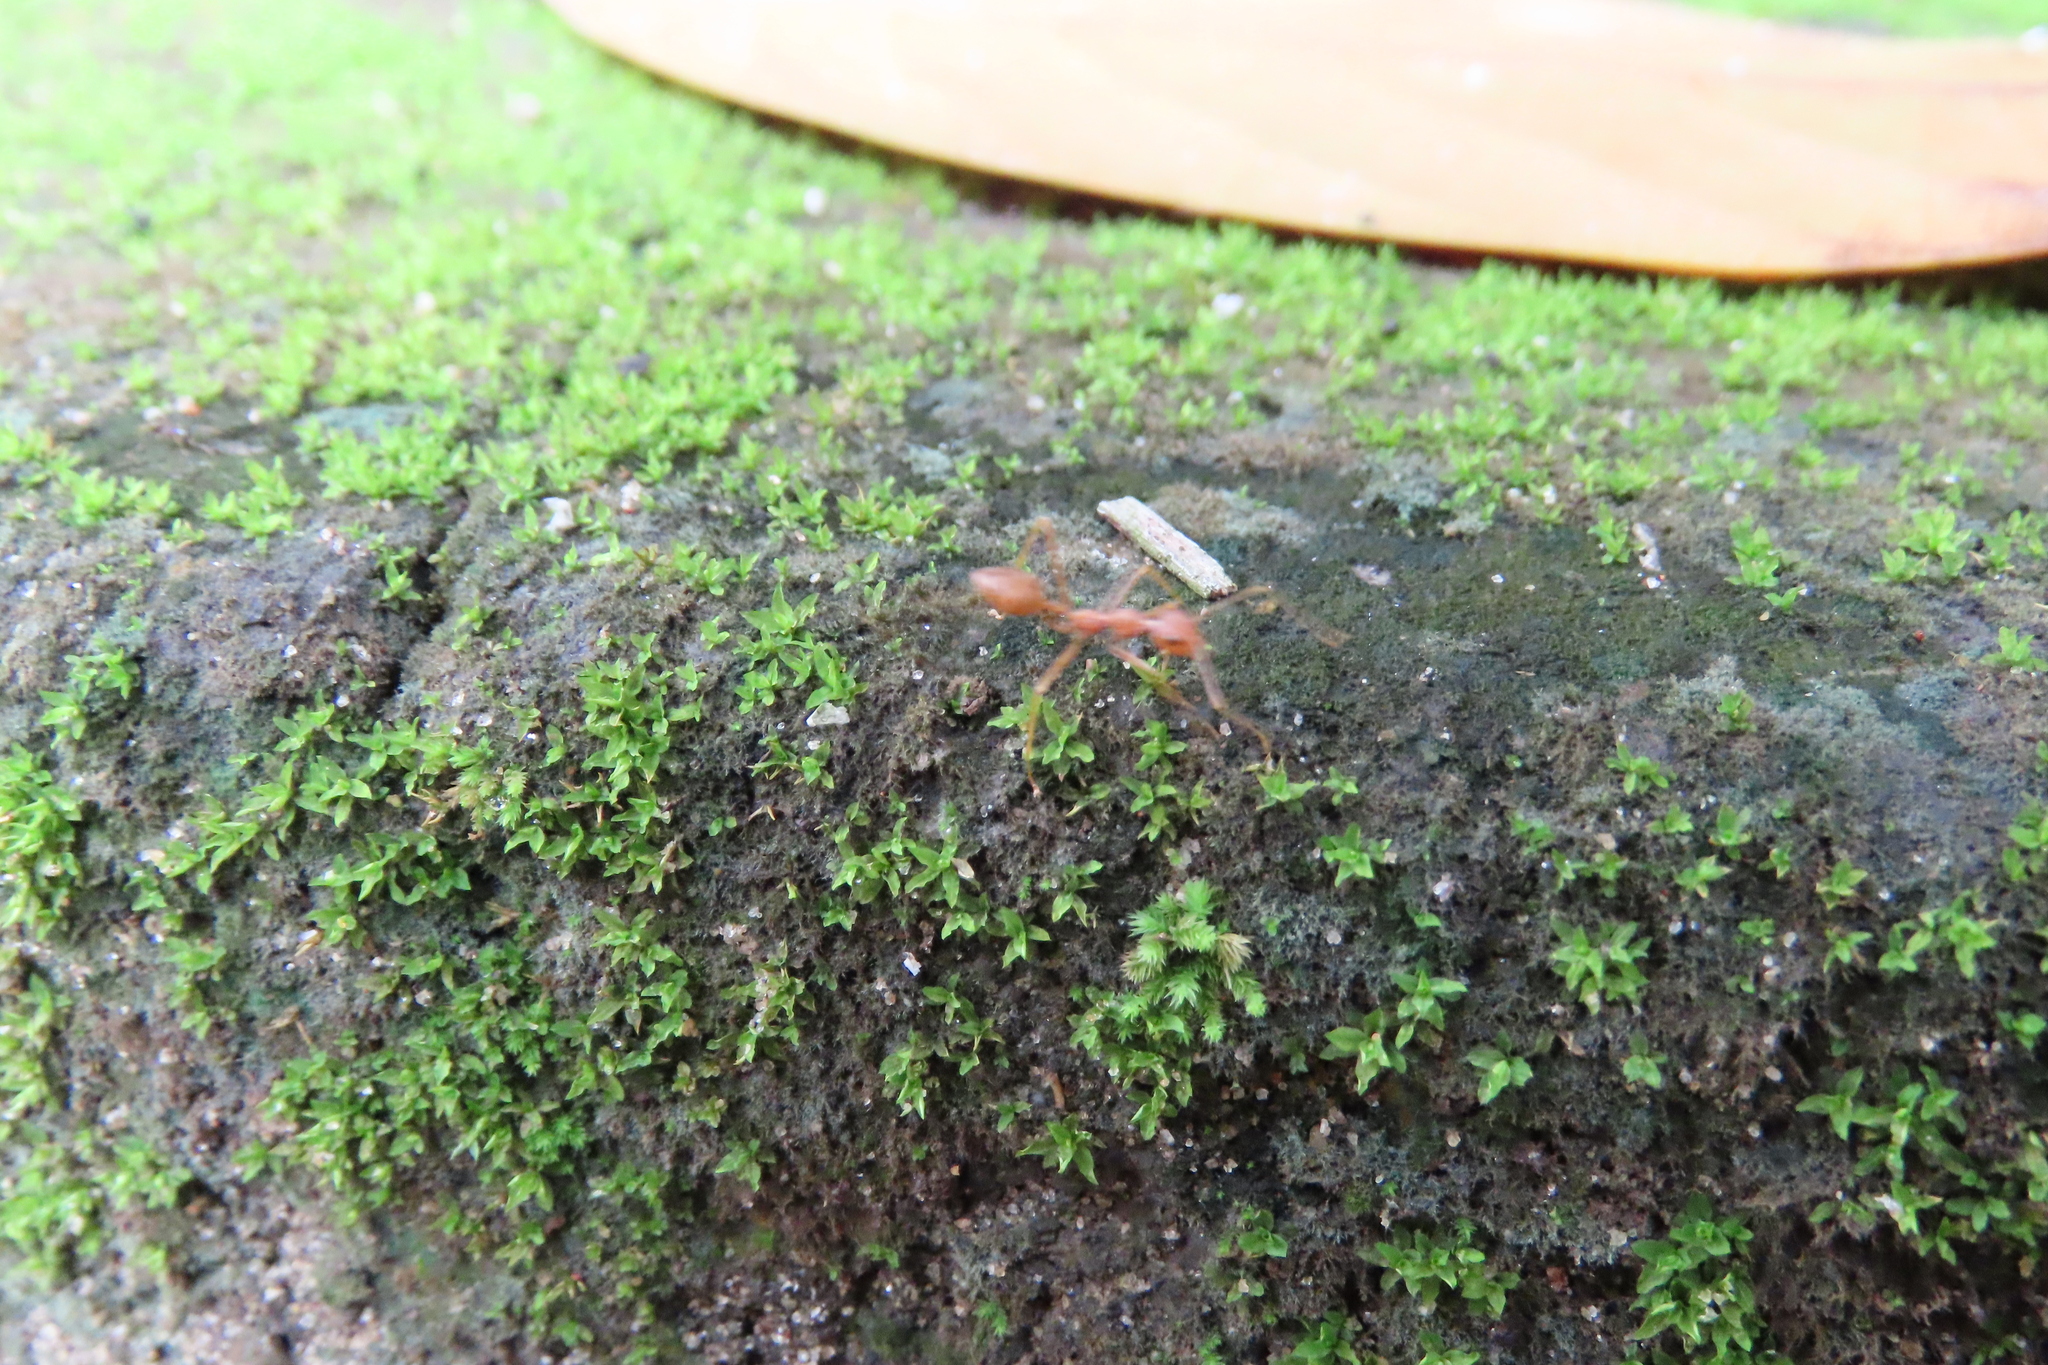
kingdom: Animalia
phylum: Arthropoda
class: Insecta
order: Hymenoptera
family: Formicidae
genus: Oecophylla
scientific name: Oecophylla smaragdina
